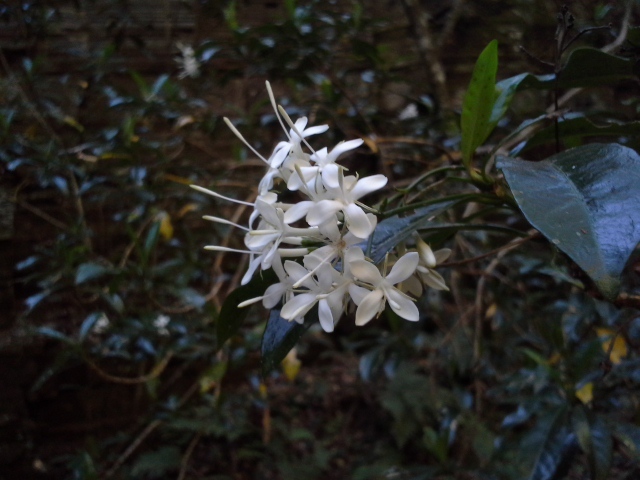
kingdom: Plantae
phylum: Tracheophyta
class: Magnoliopsida
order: Gentianales
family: Rubiaceae
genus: Pavetta
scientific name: Pavetta kotzei
